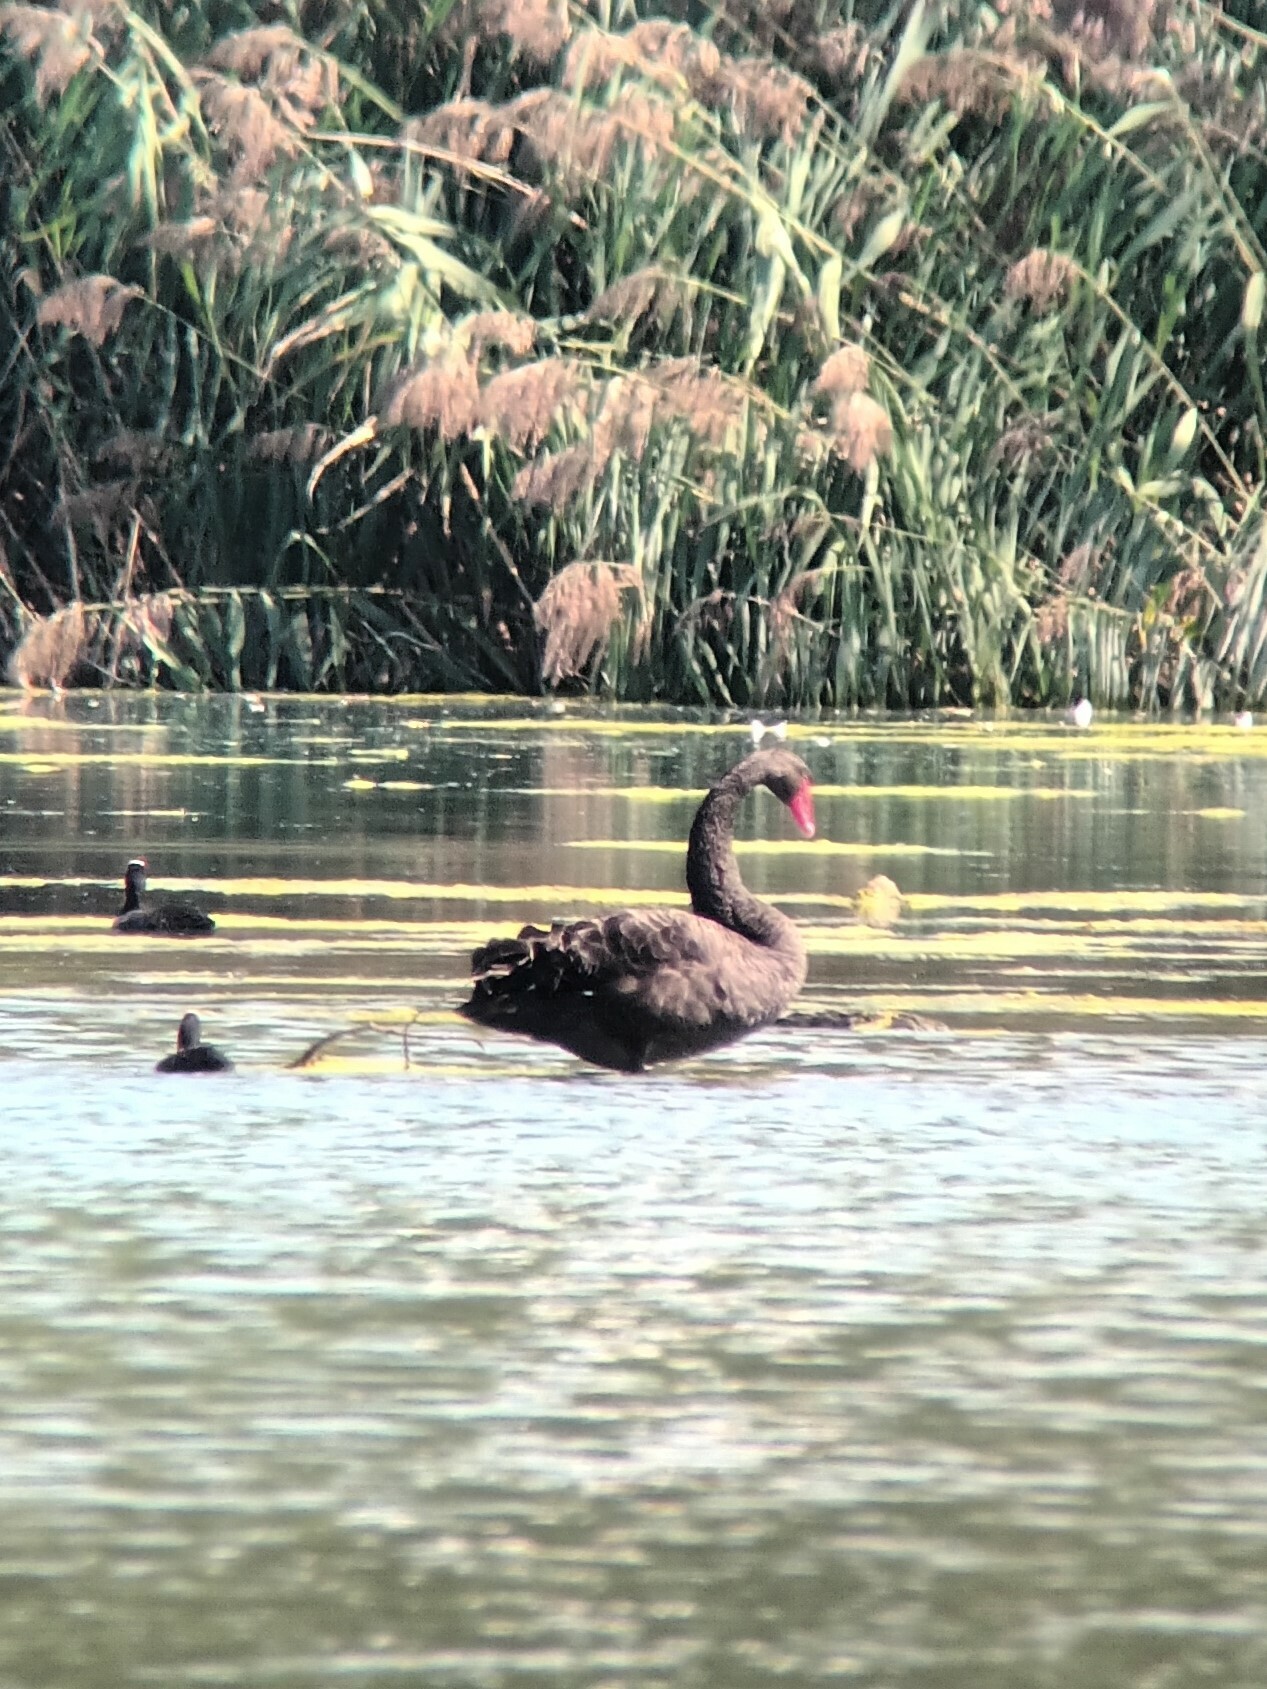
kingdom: Animalia
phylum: Chordata
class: Aves
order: Anseriformes
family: Anatidae
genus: Cygnus
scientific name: Cygnus atratus
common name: Black swan
